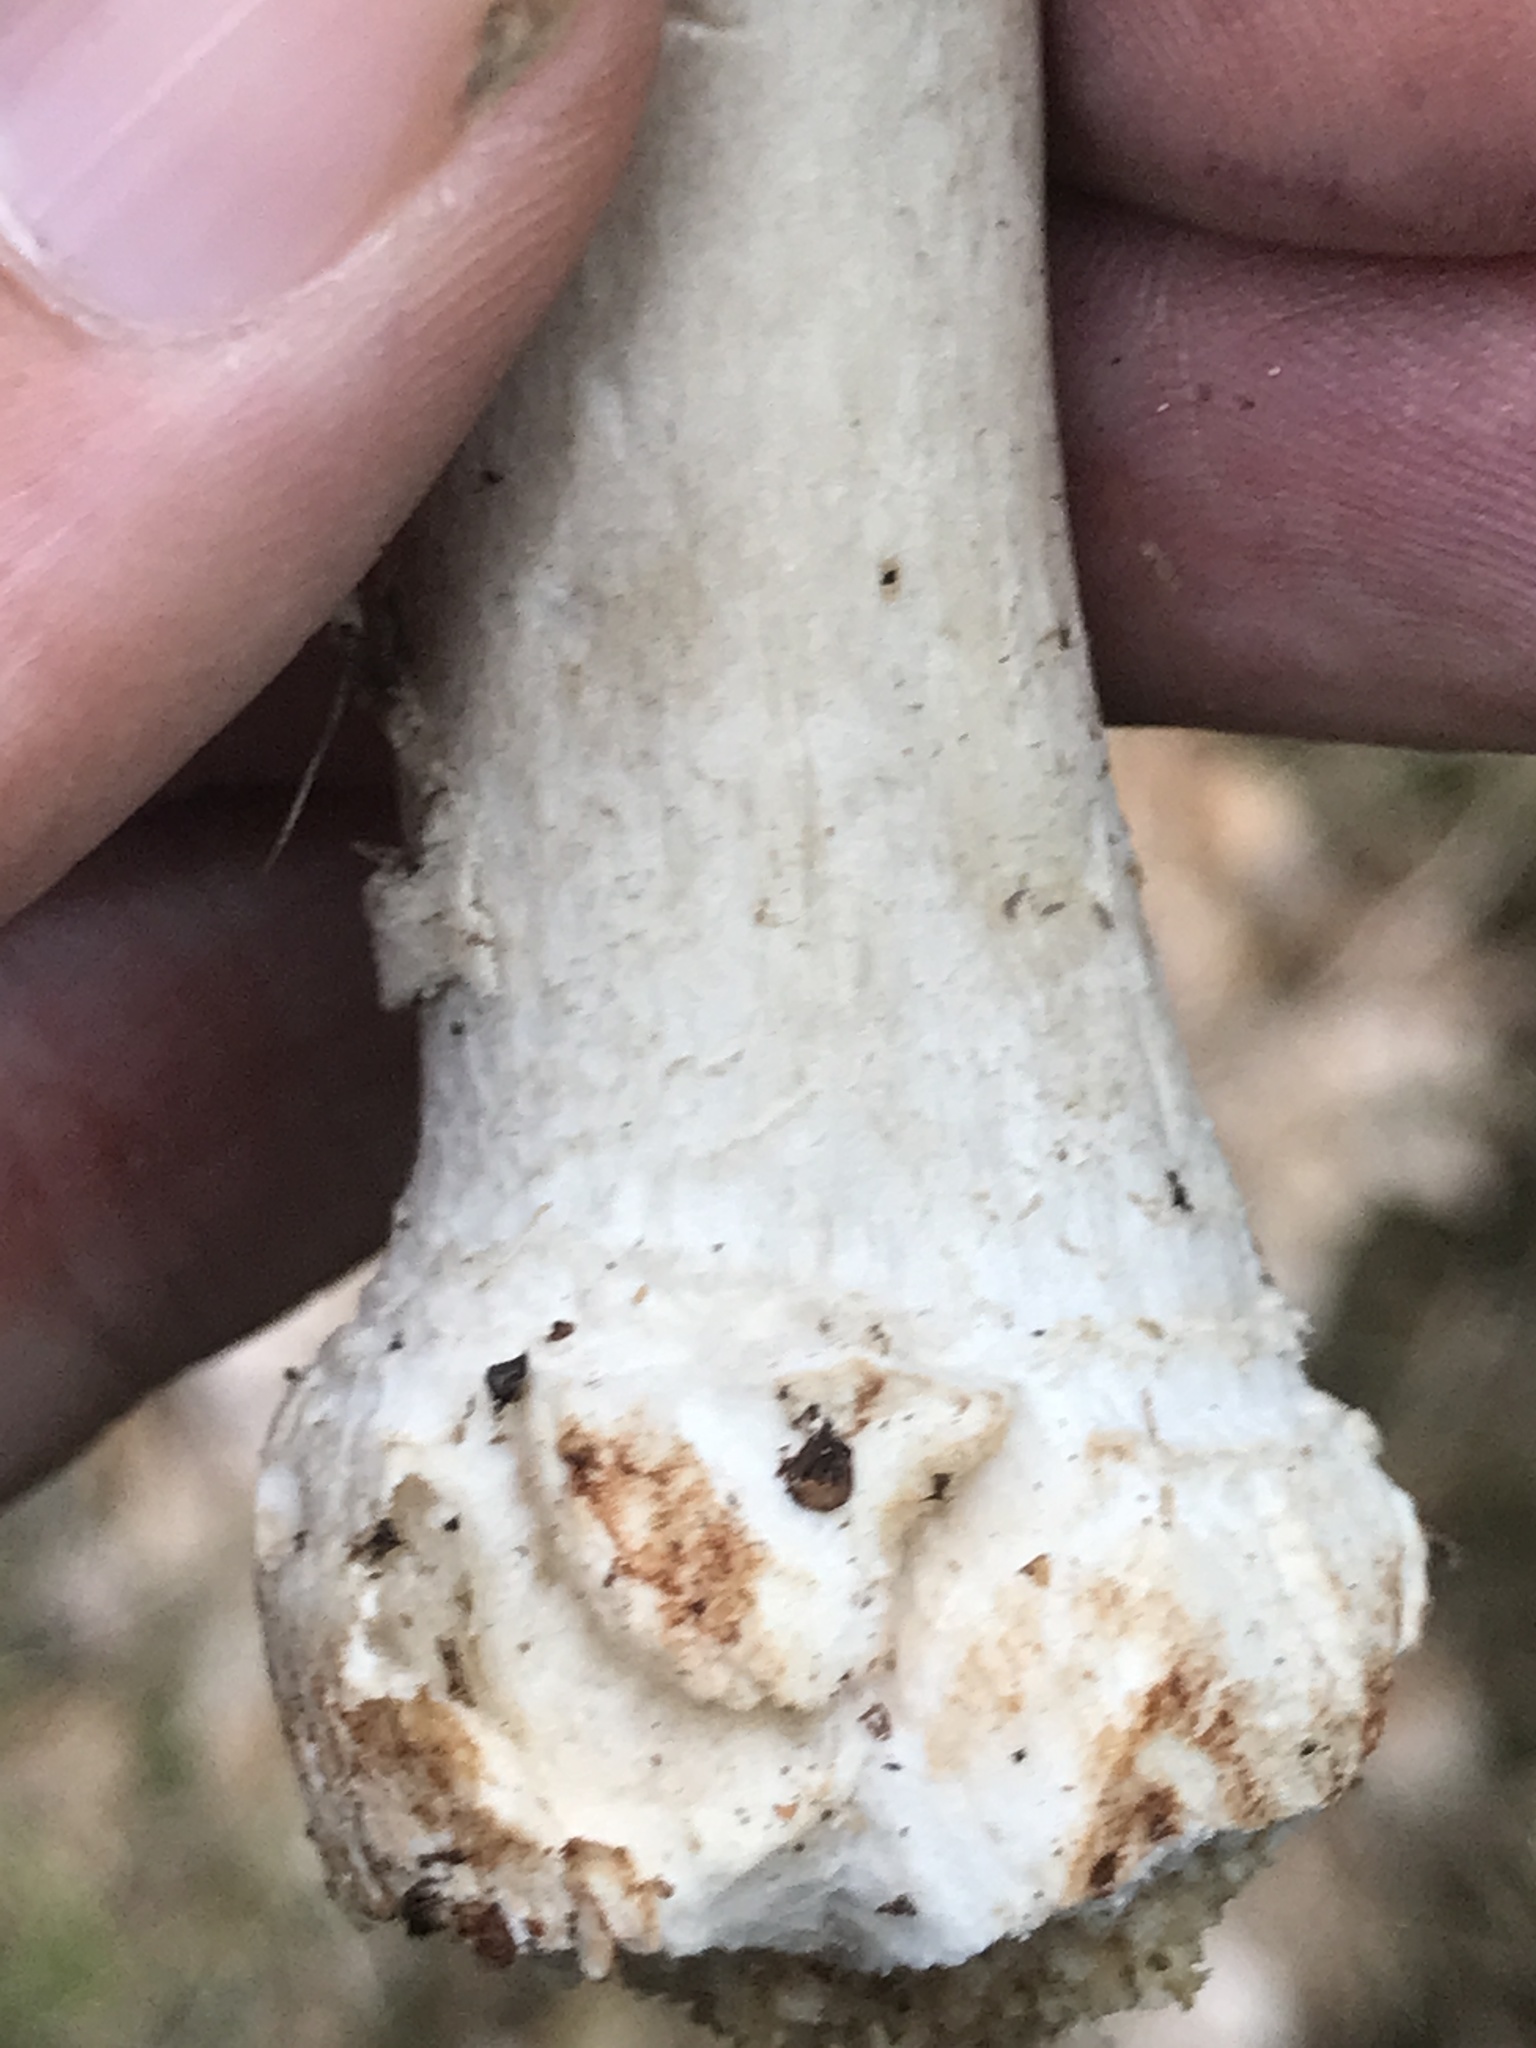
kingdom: Fungi
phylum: Basidiomycota
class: Agaricomycetes
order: Agaricales
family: Amanitaceae
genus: Amanita
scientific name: Amanita excelsa
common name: European false blusher
